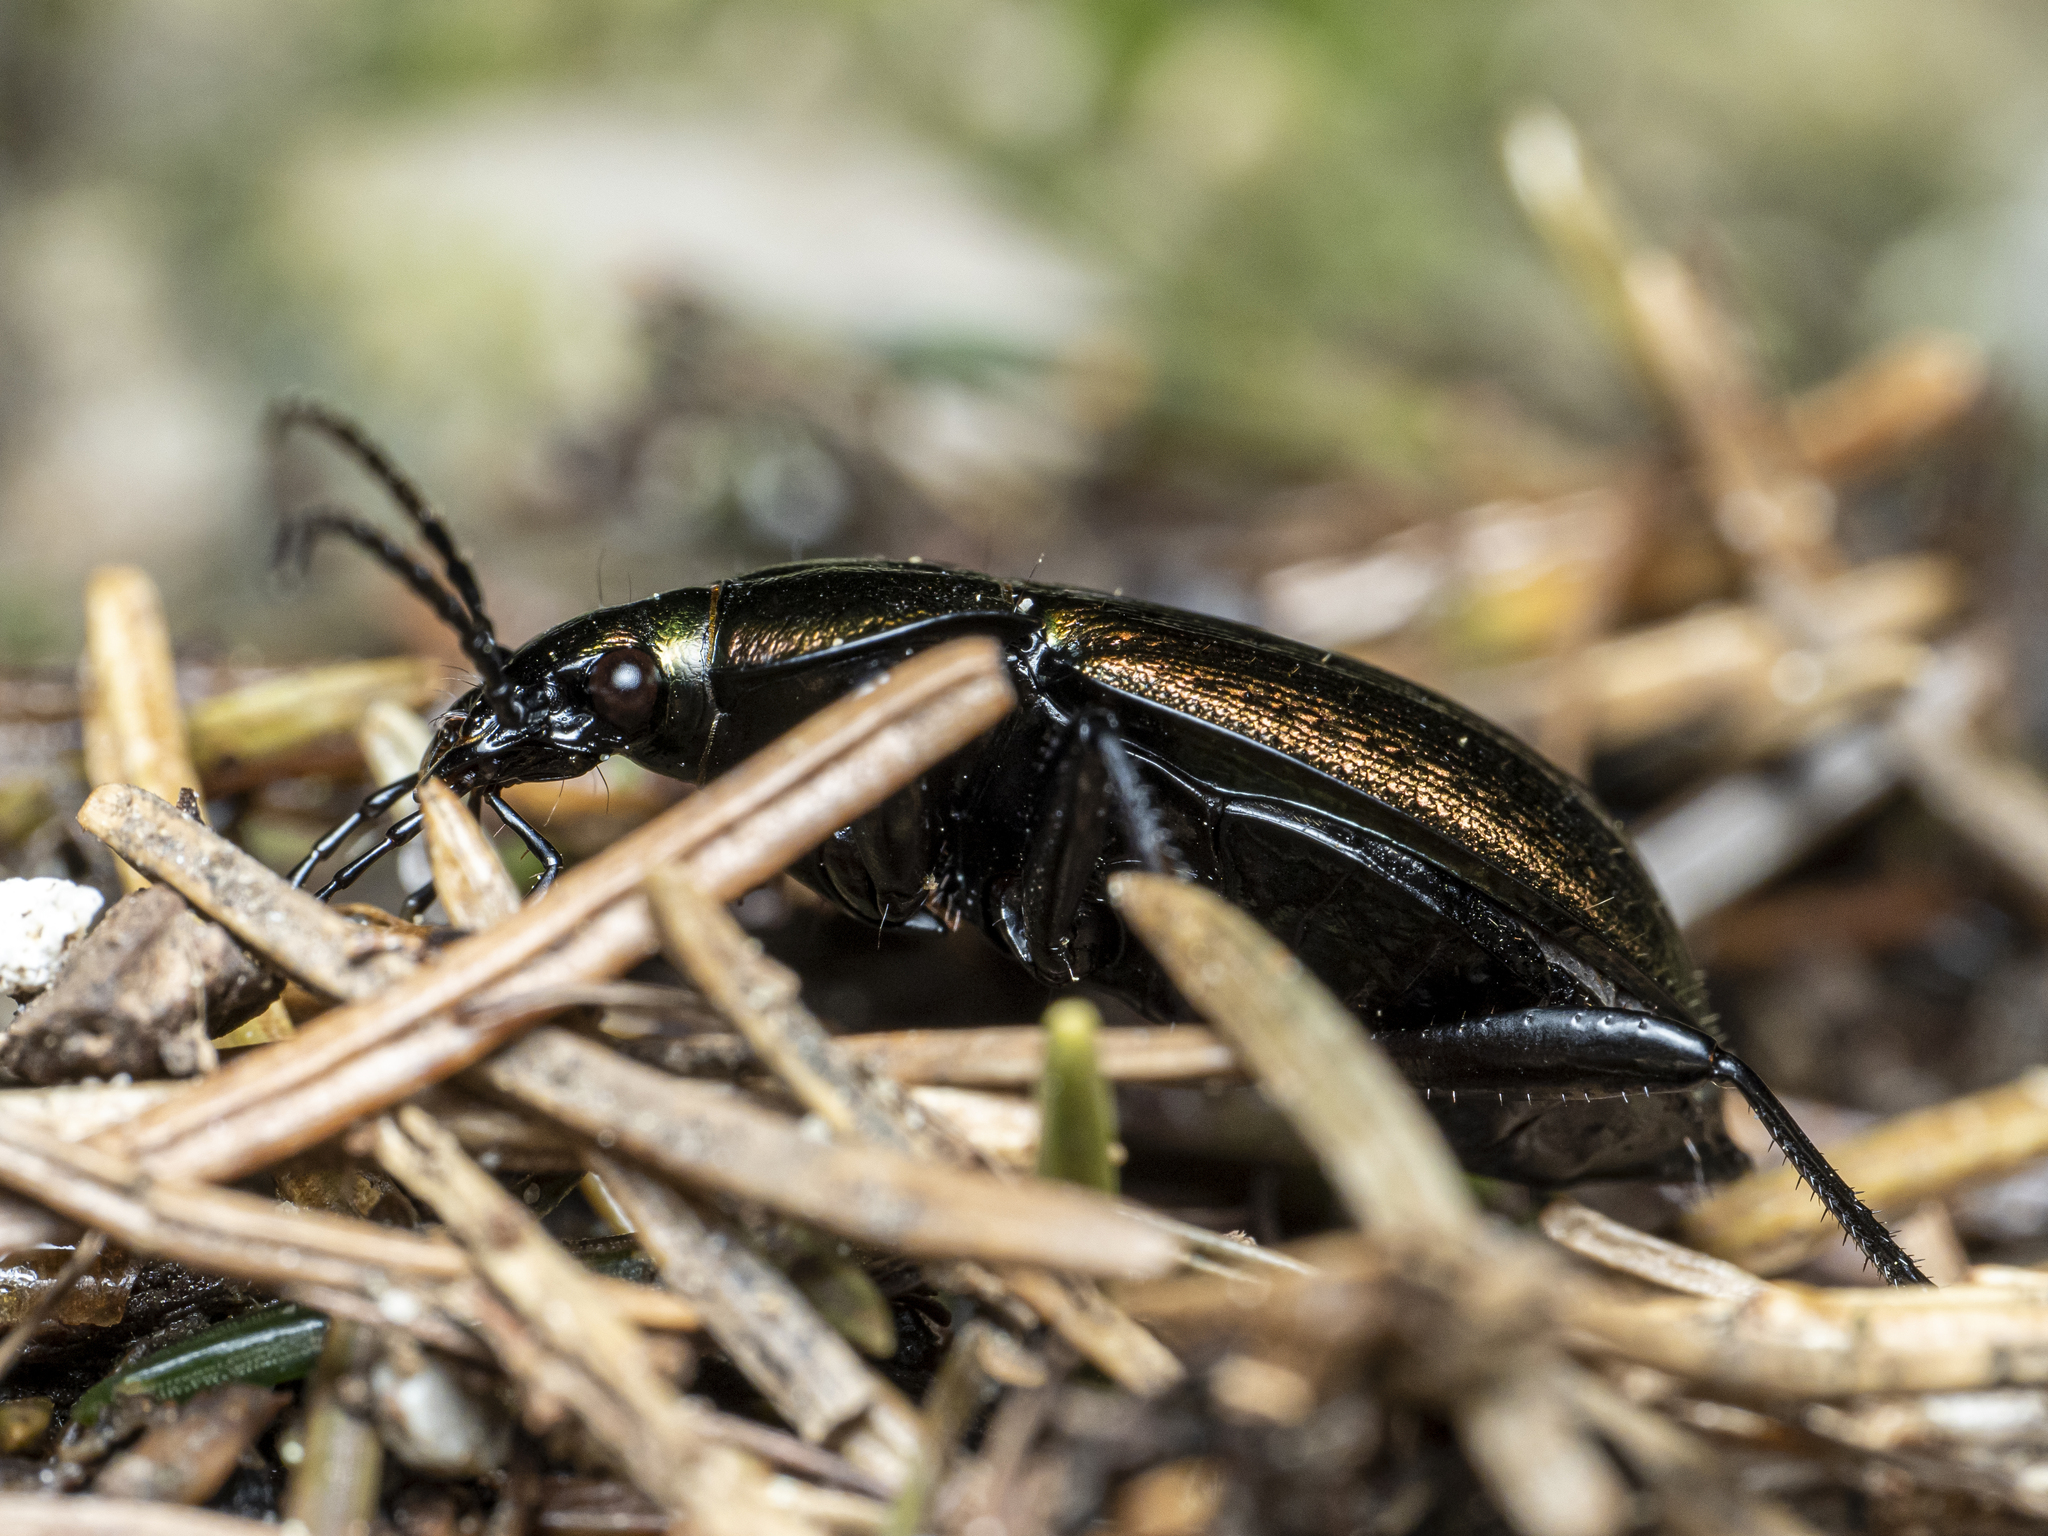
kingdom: Animalia
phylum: Arthropoda
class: Insecta
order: Coleoptera
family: Carabidae
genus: Carabus
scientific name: Carabus arvensis
